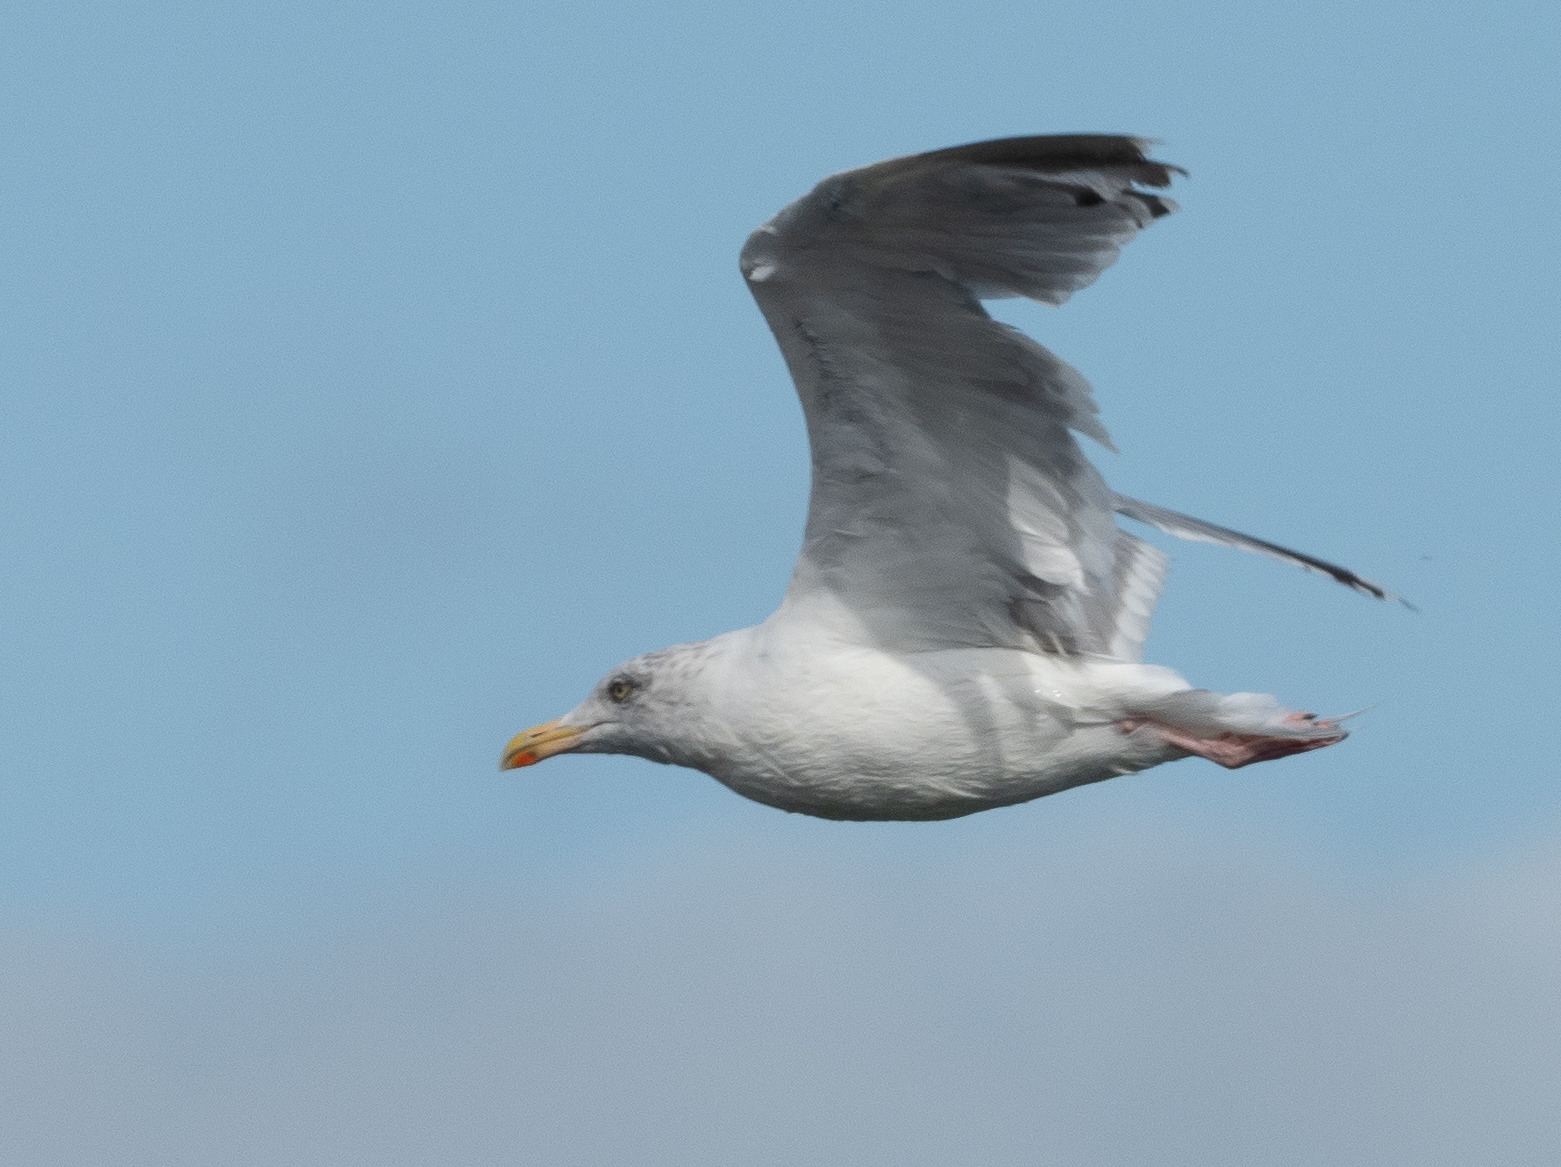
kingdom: Animalia
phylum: Chordata
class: Aves
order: Charadriiformes
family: Laridae
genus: Larus
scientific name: Larus argentatus
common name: Herring gull
